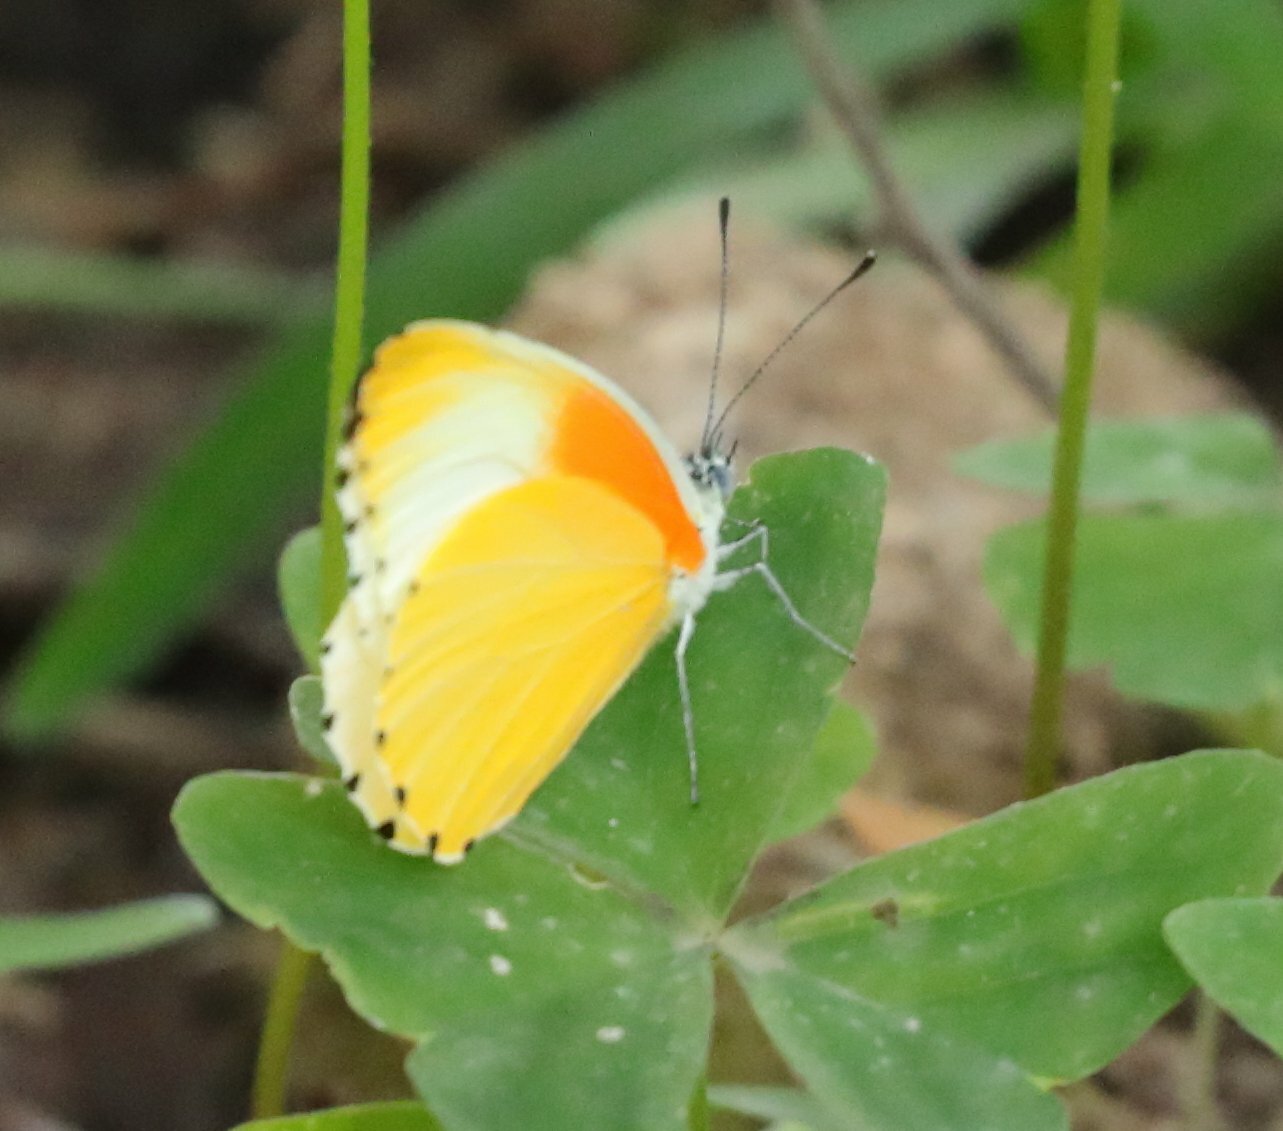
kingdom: Animalia
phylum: Arthropoda
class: Insecta
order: Lepidoptera
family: Pieridae
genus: Mylothris
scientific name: Mylothris agathina
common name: Eastern dotted border
